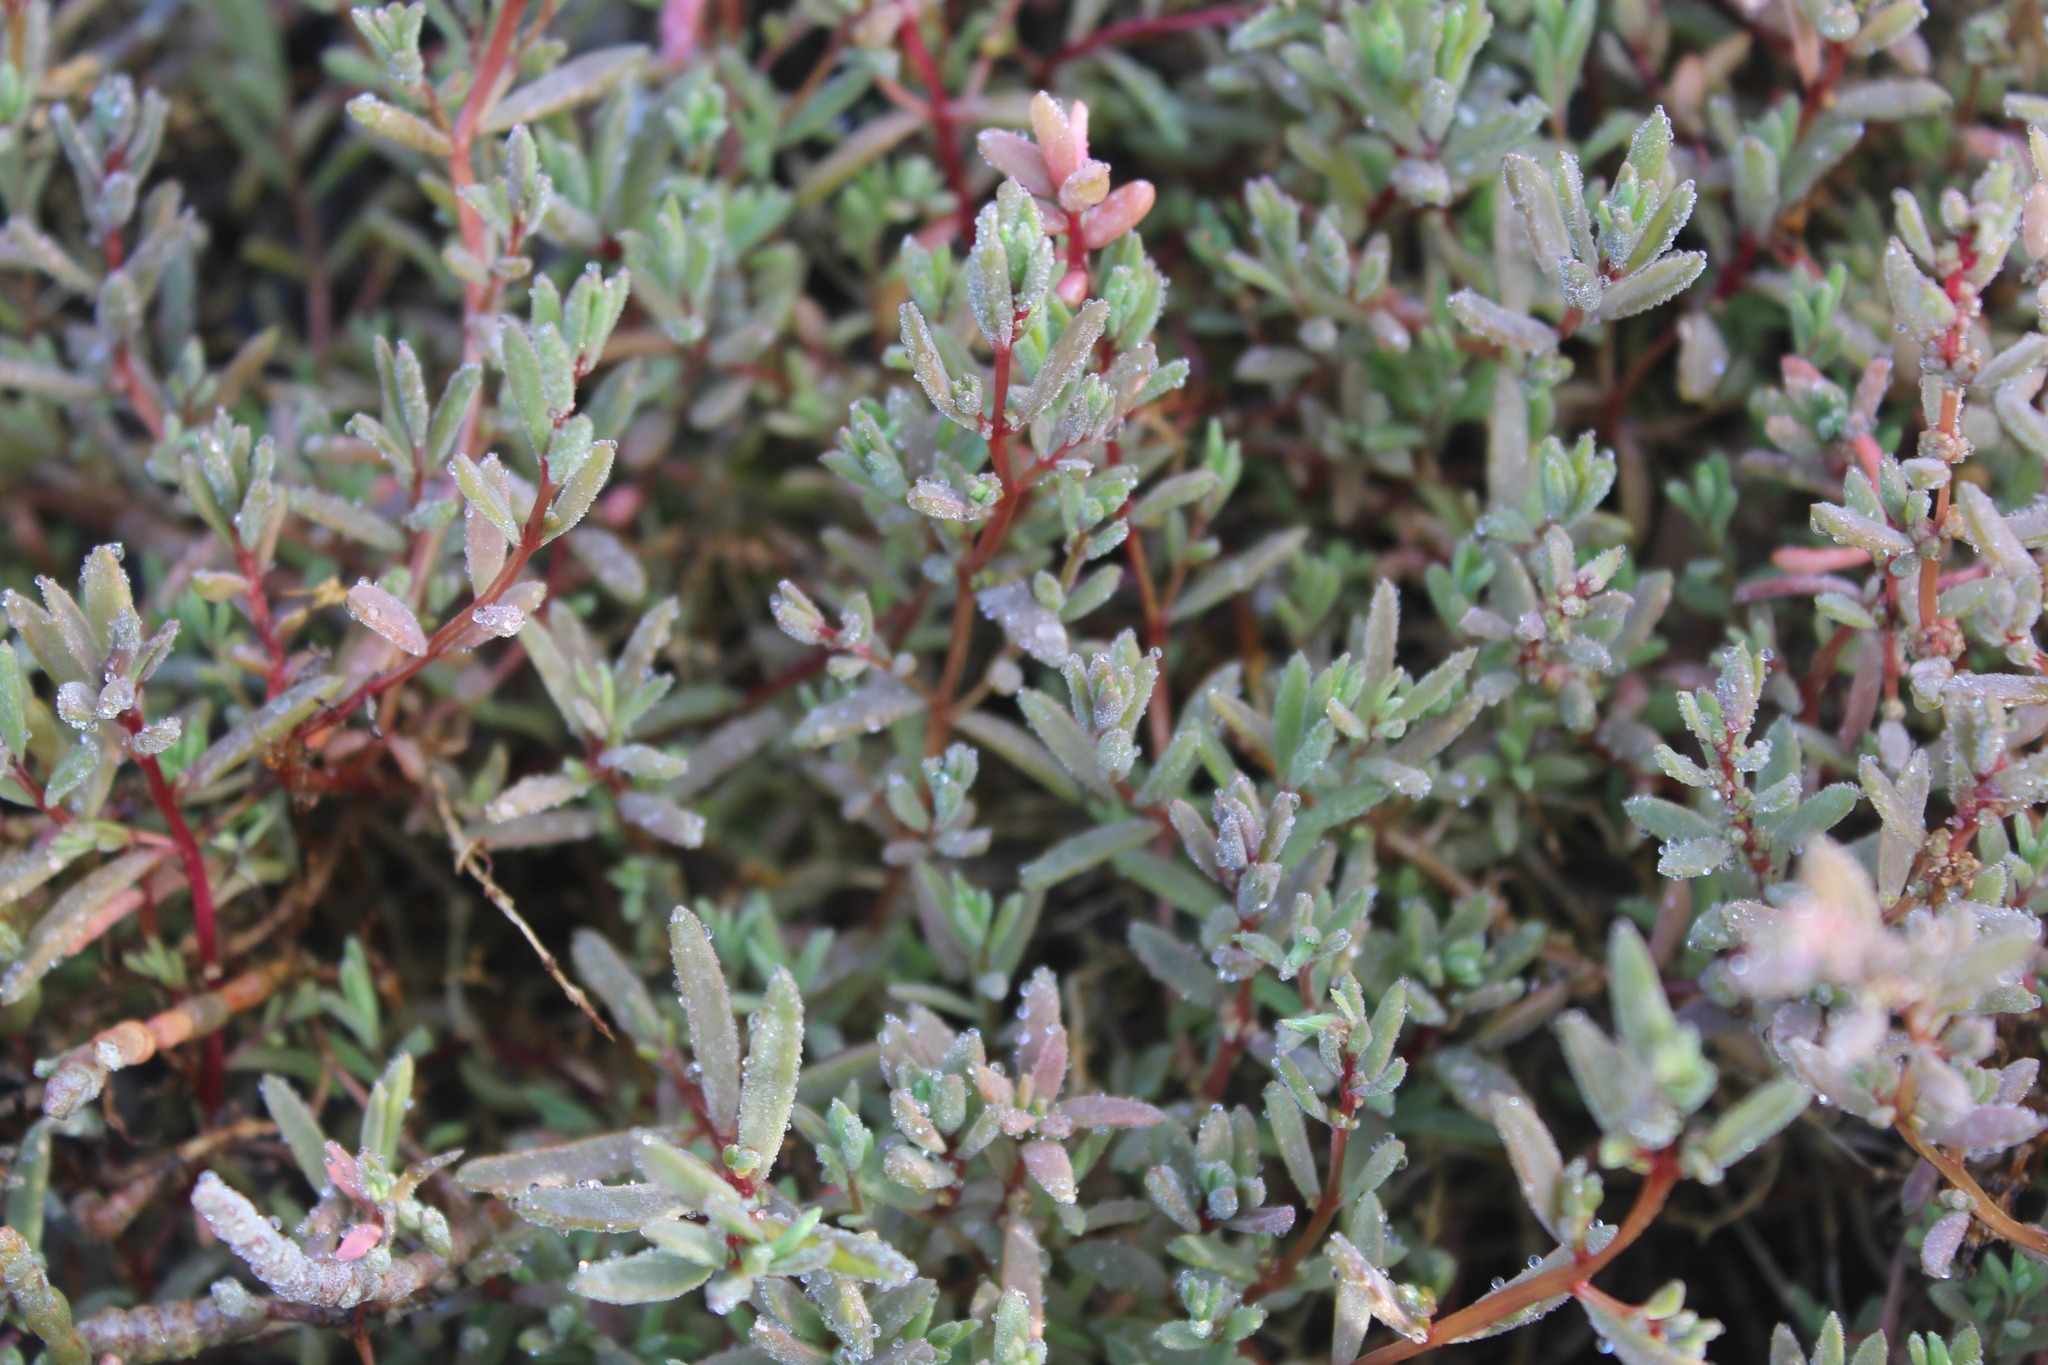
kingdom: Plantae
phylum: Tracheophyta
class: Magnoliopsida
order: Caryophyllales
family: Amaranthaceae
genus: Suaeda
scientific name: Suaeda novae-zelandiae
